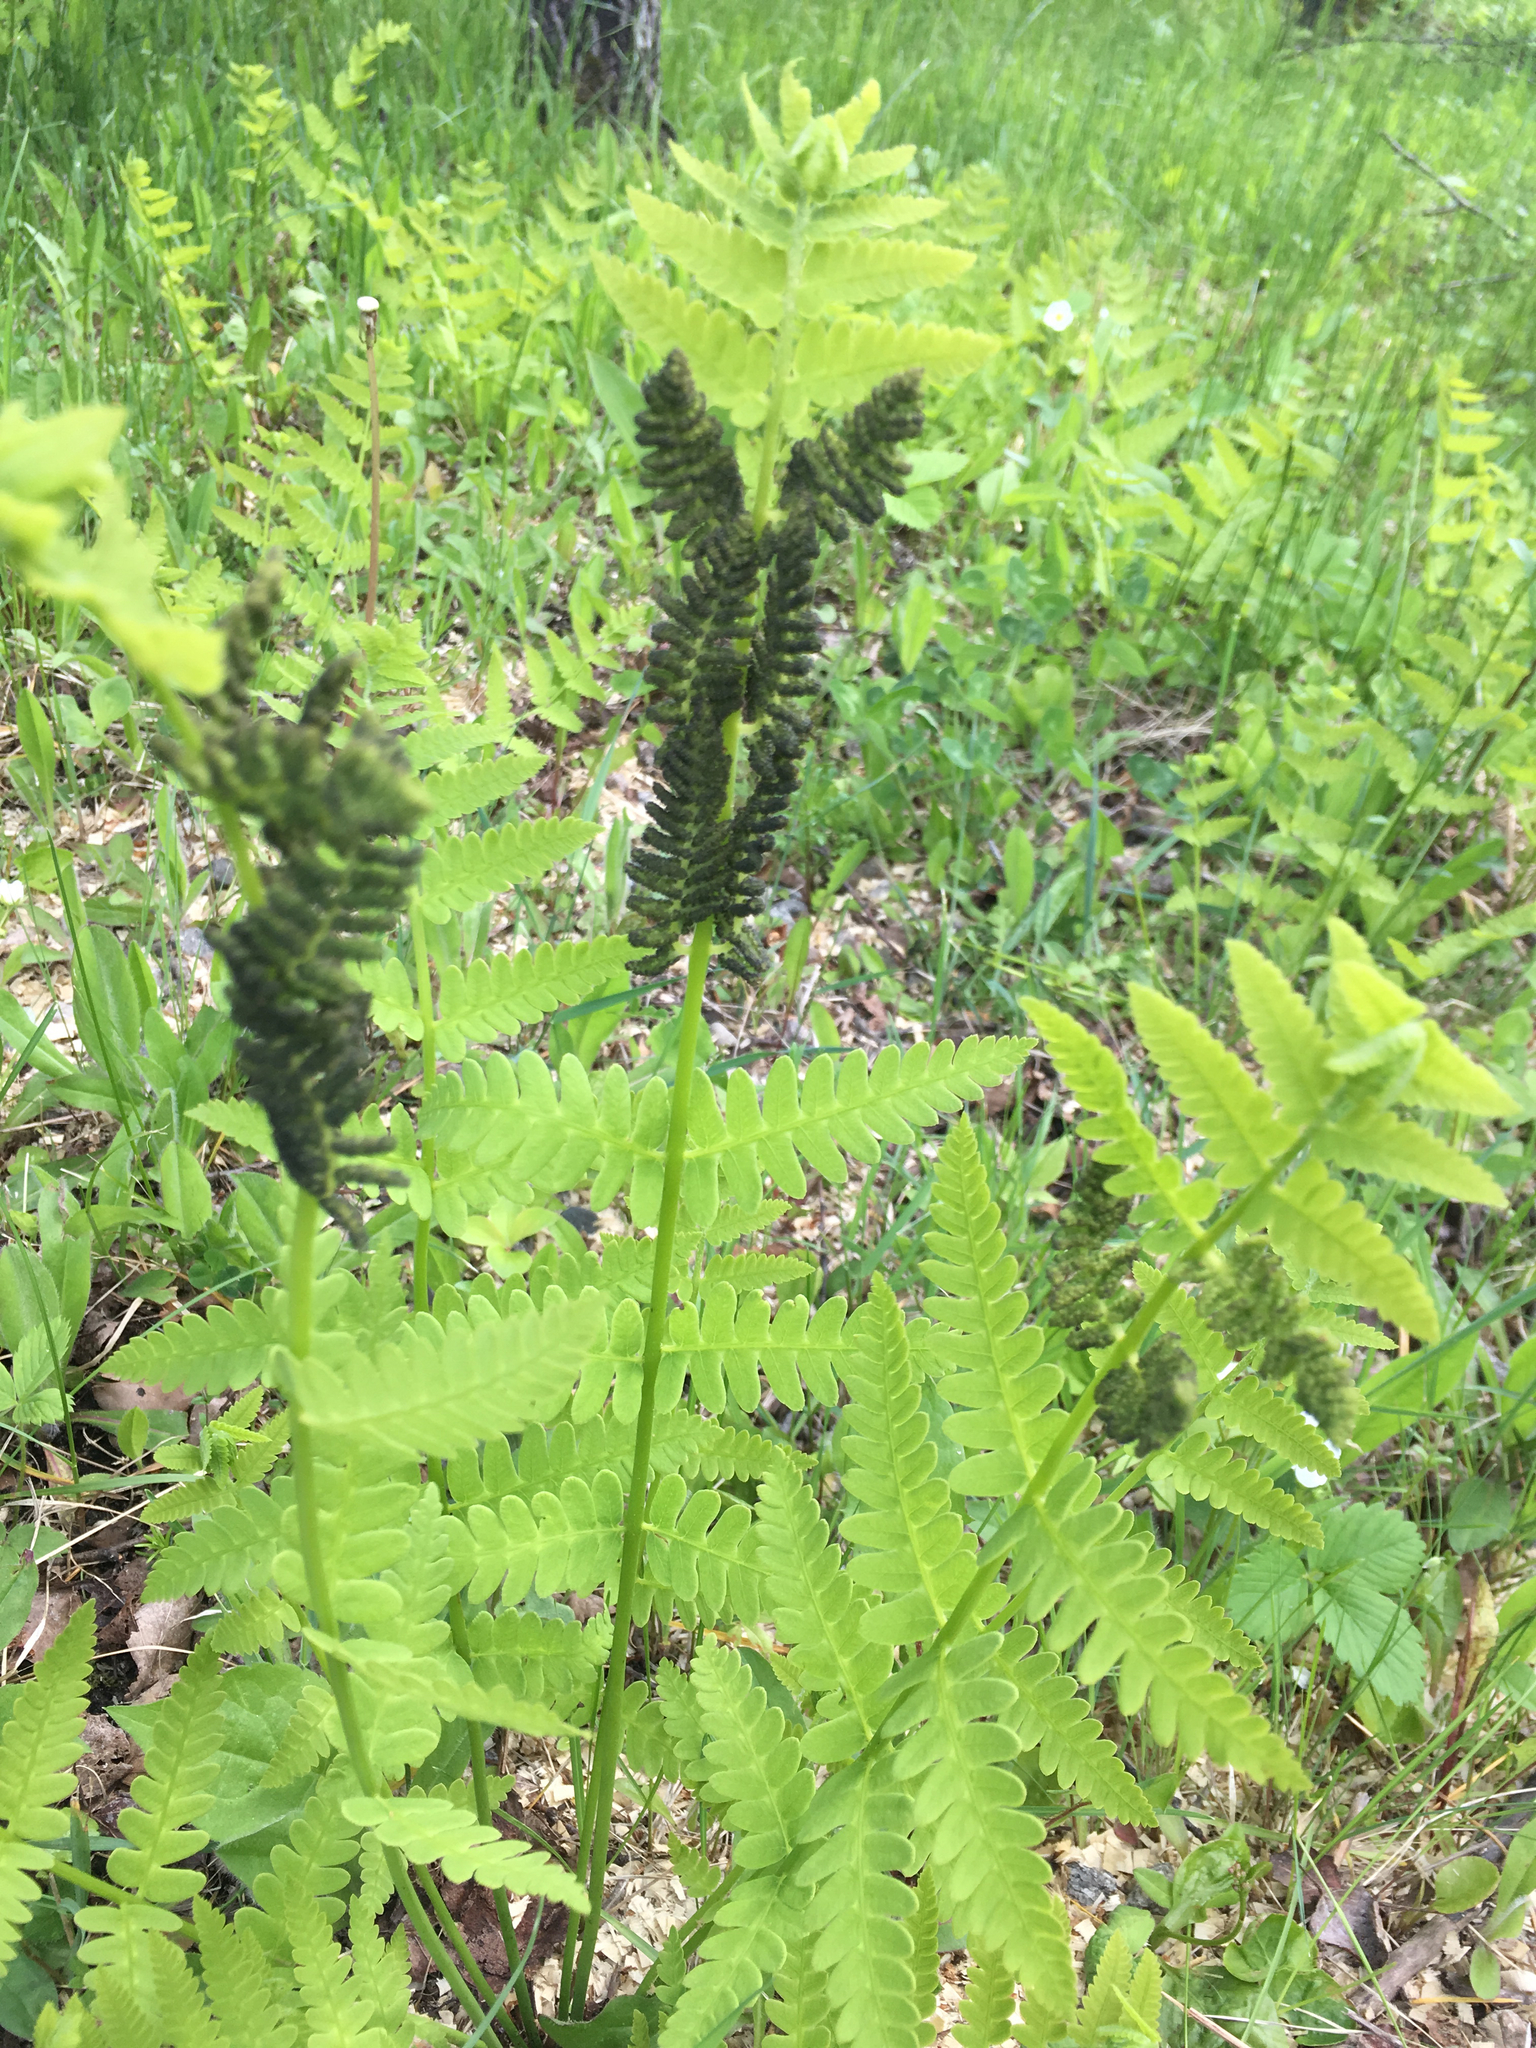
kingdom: Plantae
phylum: Tracheophyta
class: Polypodiopsida
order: Osmundales
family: Osmundaceae
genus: Claytosmunda
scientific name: Claytosmunda claytoniana
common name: Clayton's fern
